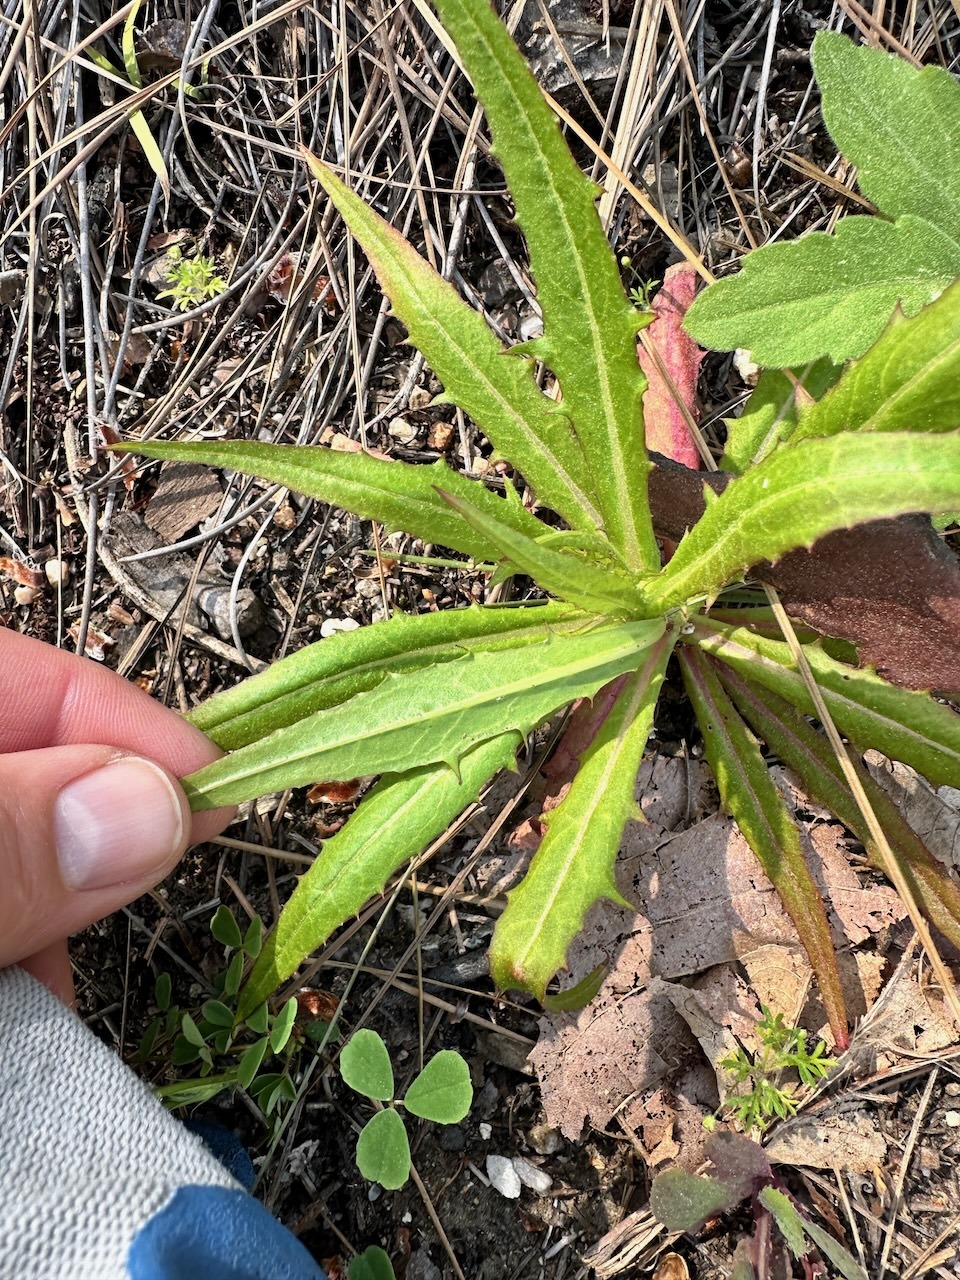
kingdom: Plantae
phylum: Tracheophyta
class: Magnoliopsida
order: Asterales
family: Asteraceae
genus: Malacothrix
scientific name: Malacothrix saxatilis
